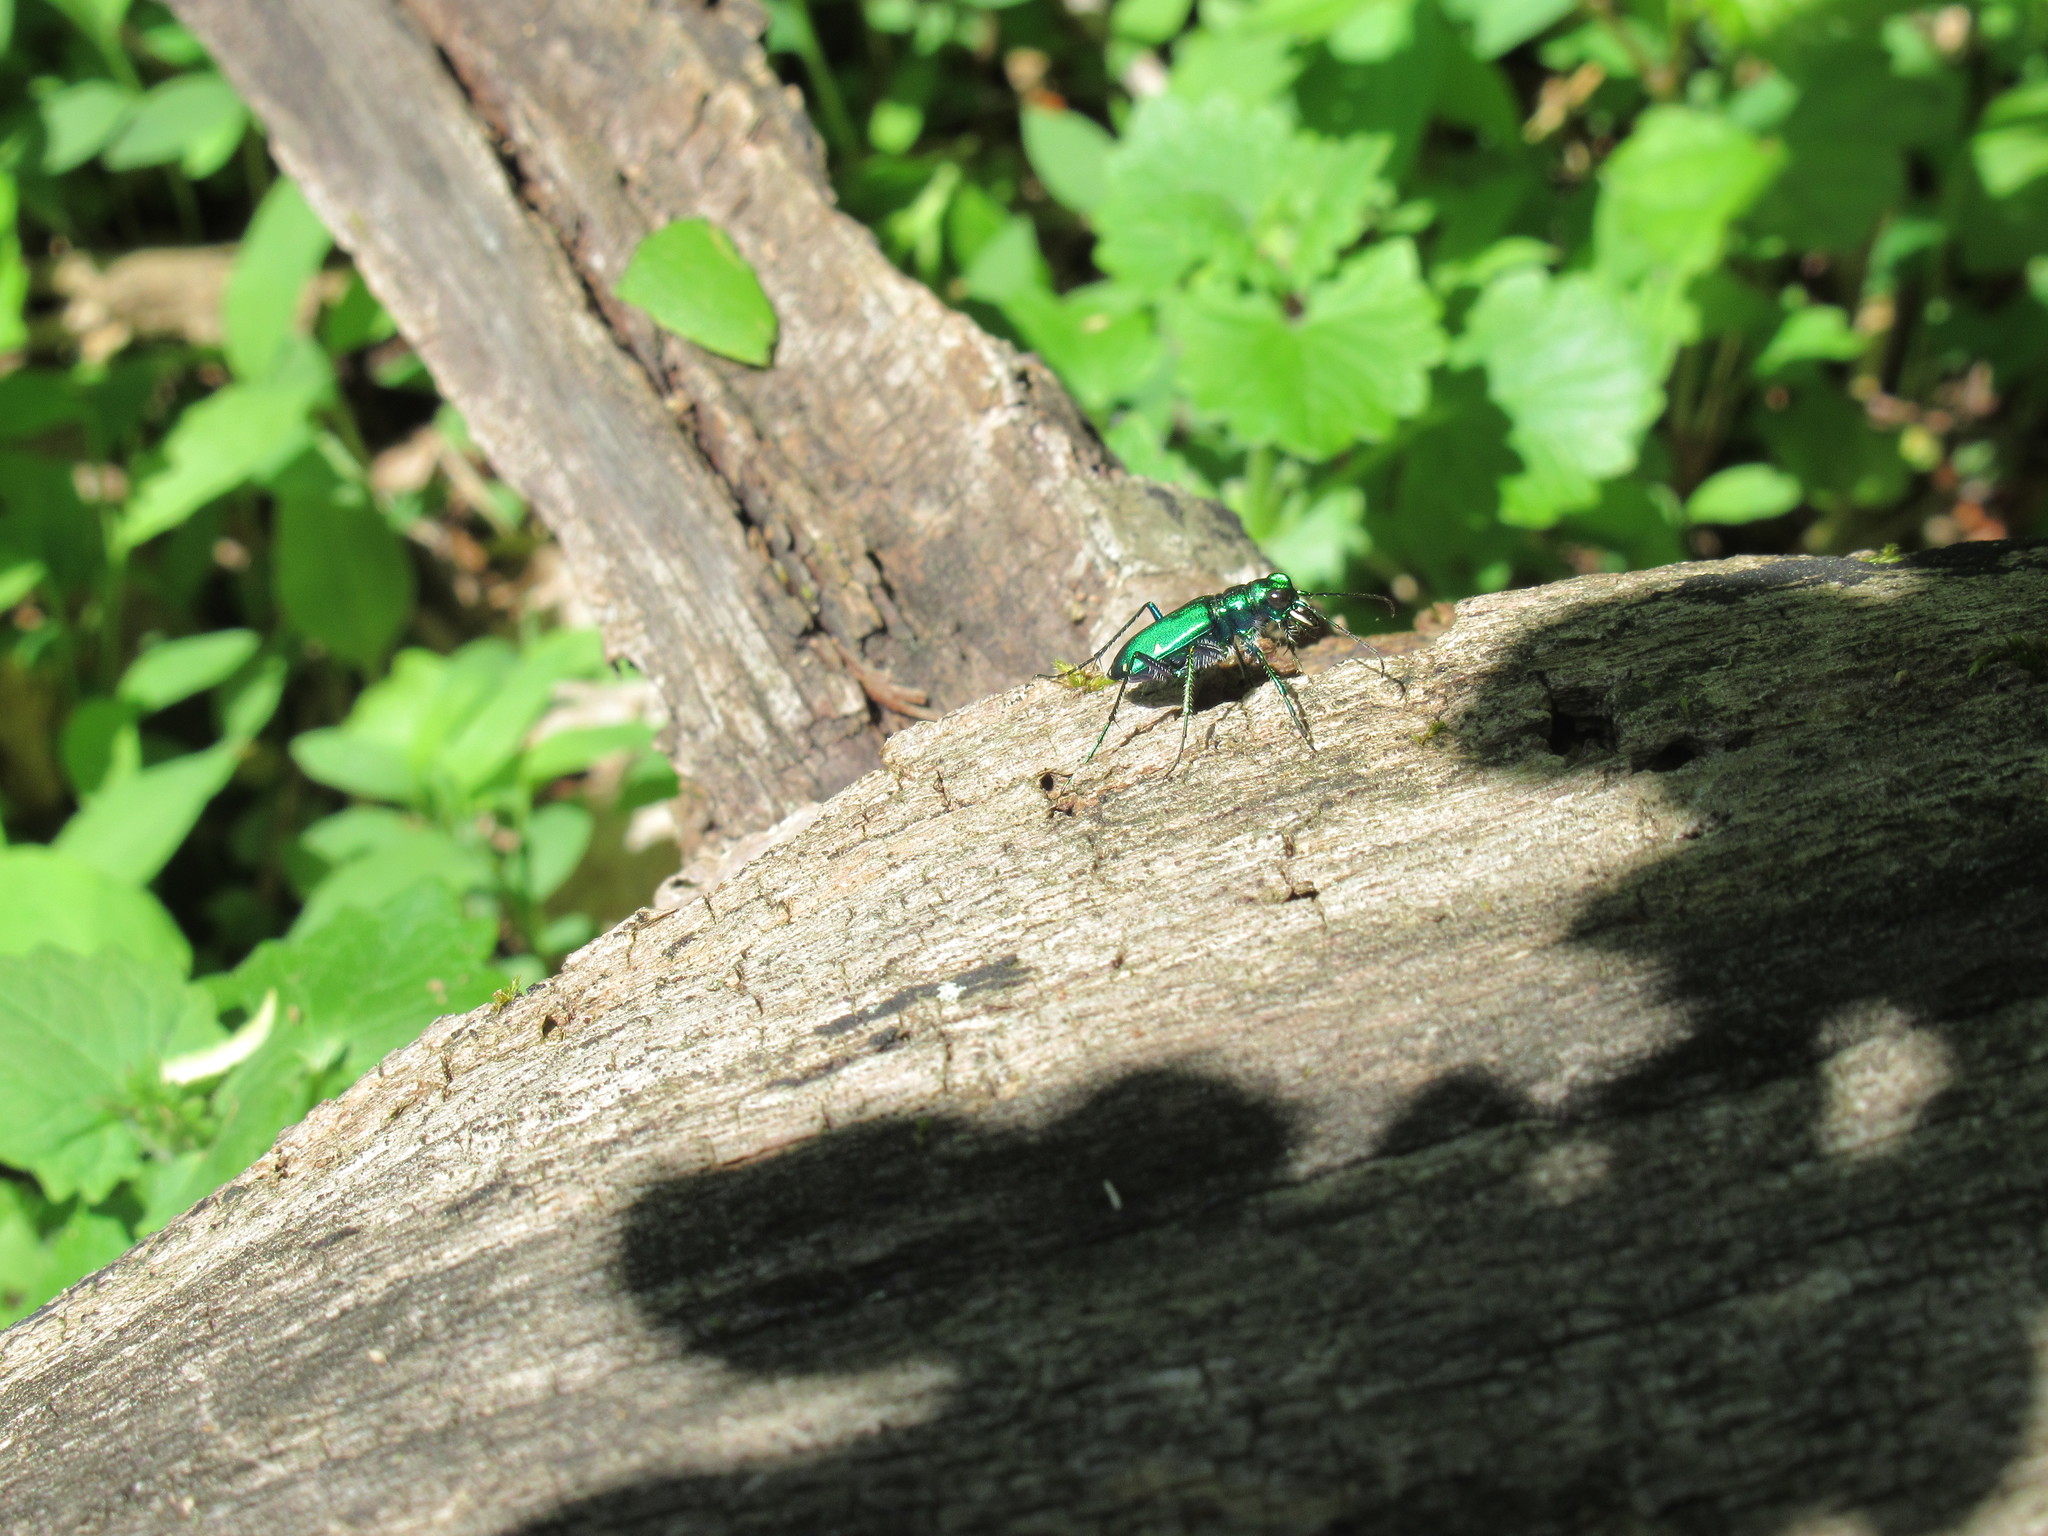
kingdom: Animalia
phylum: Arthropoda
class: Insecta
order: Coleoptera
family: Carabidae
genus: Cicindela
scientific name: Cicindela sexguttata
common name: Six-spotted tiger beetle
